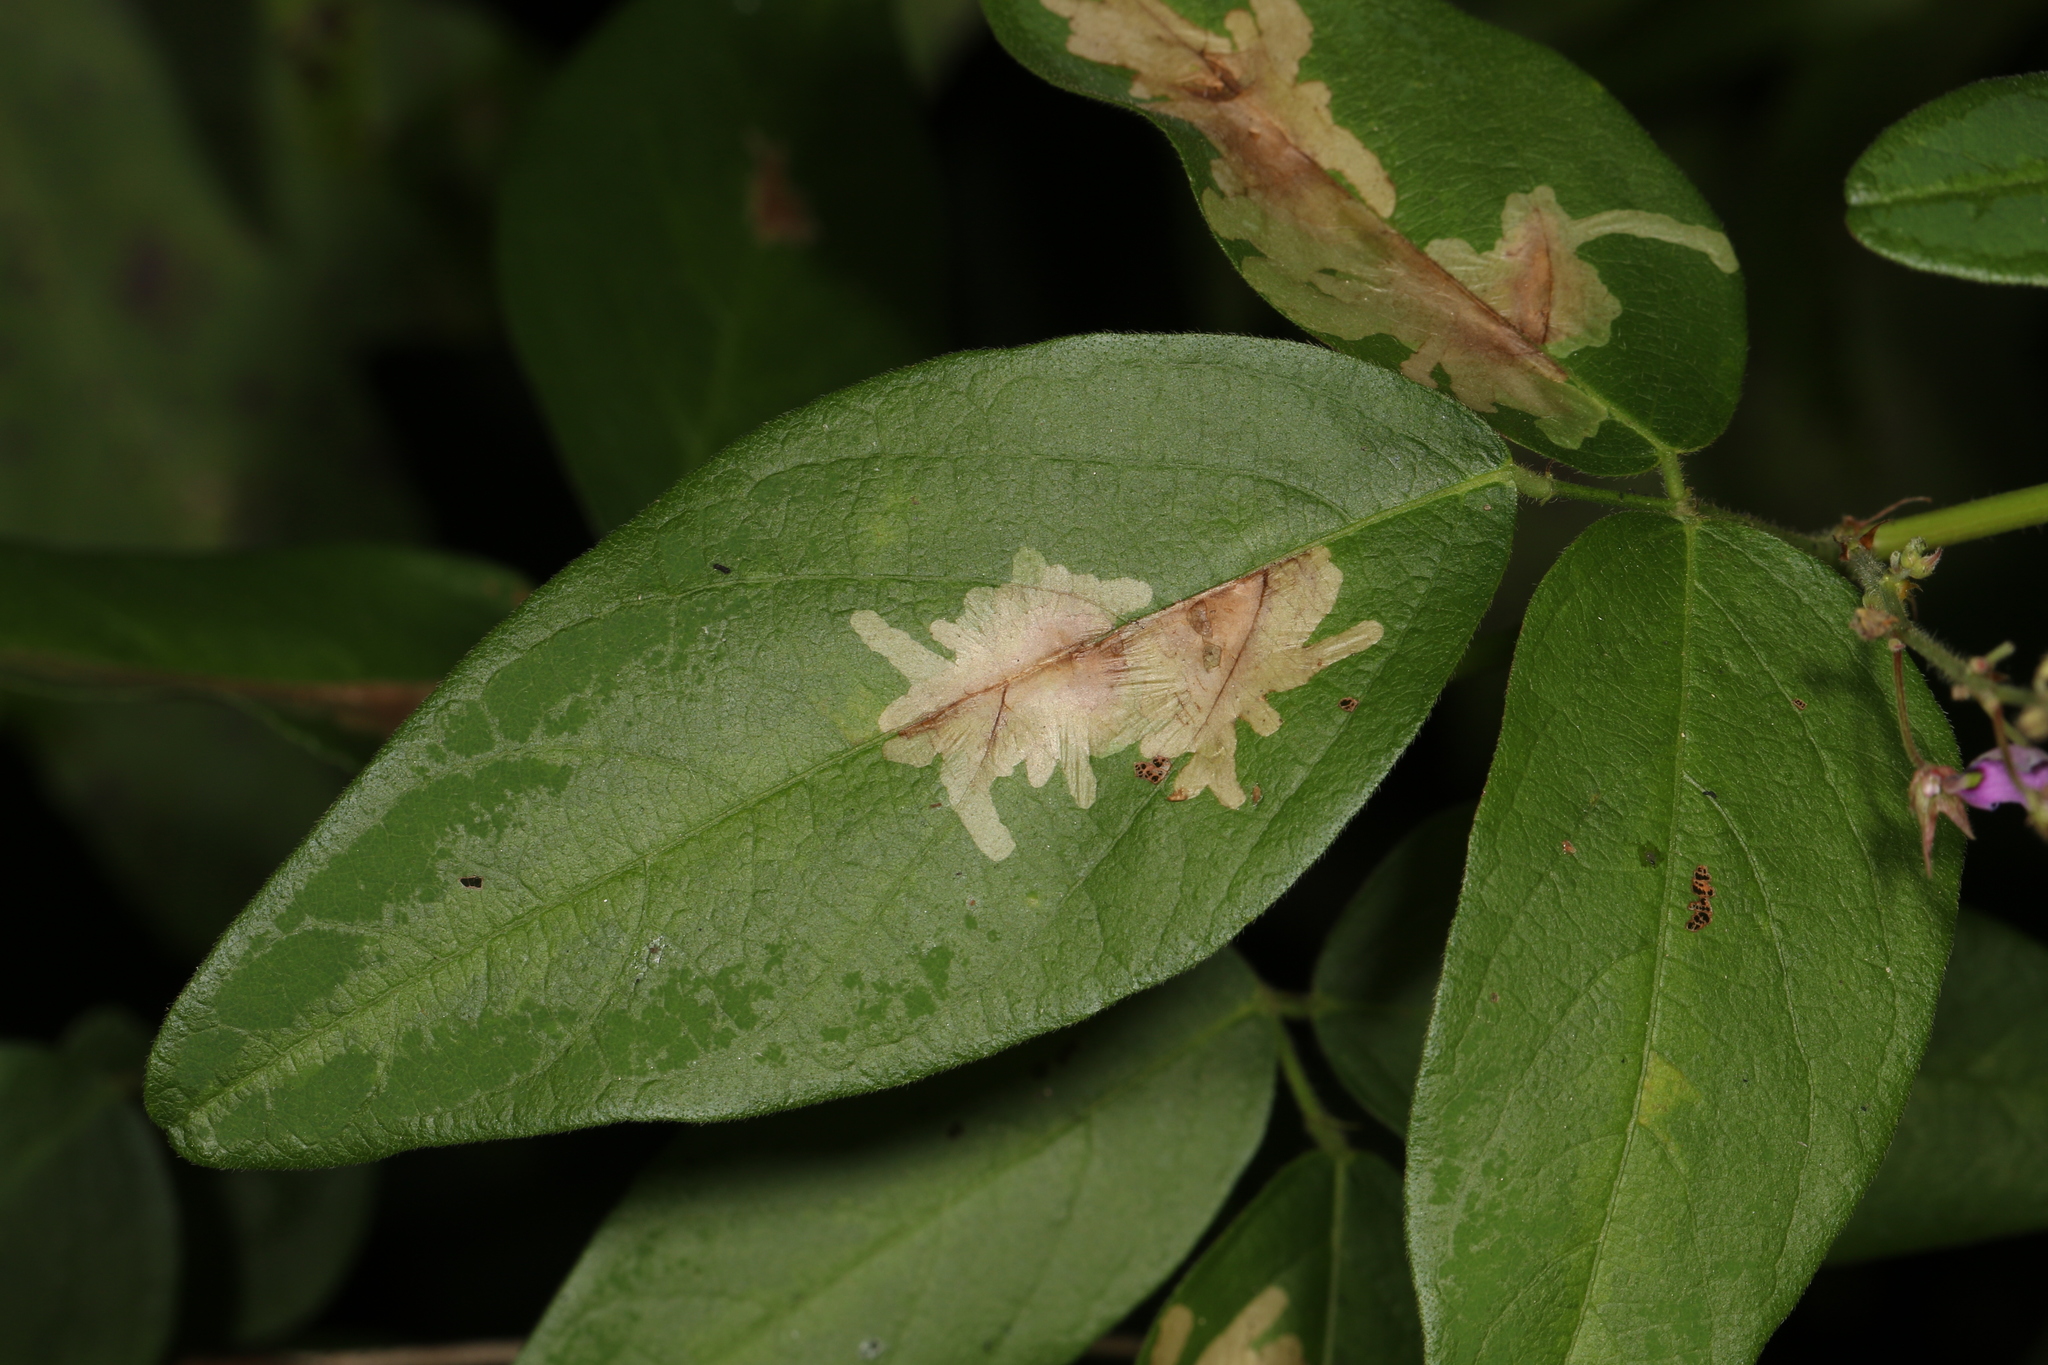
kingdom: Animalia
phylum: Arthropoda
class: Insecta
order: Lepidoptera
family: Gracillariidae
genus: Parectopa
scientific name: Parectopa robiniella
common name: Locust digitate leafminer
